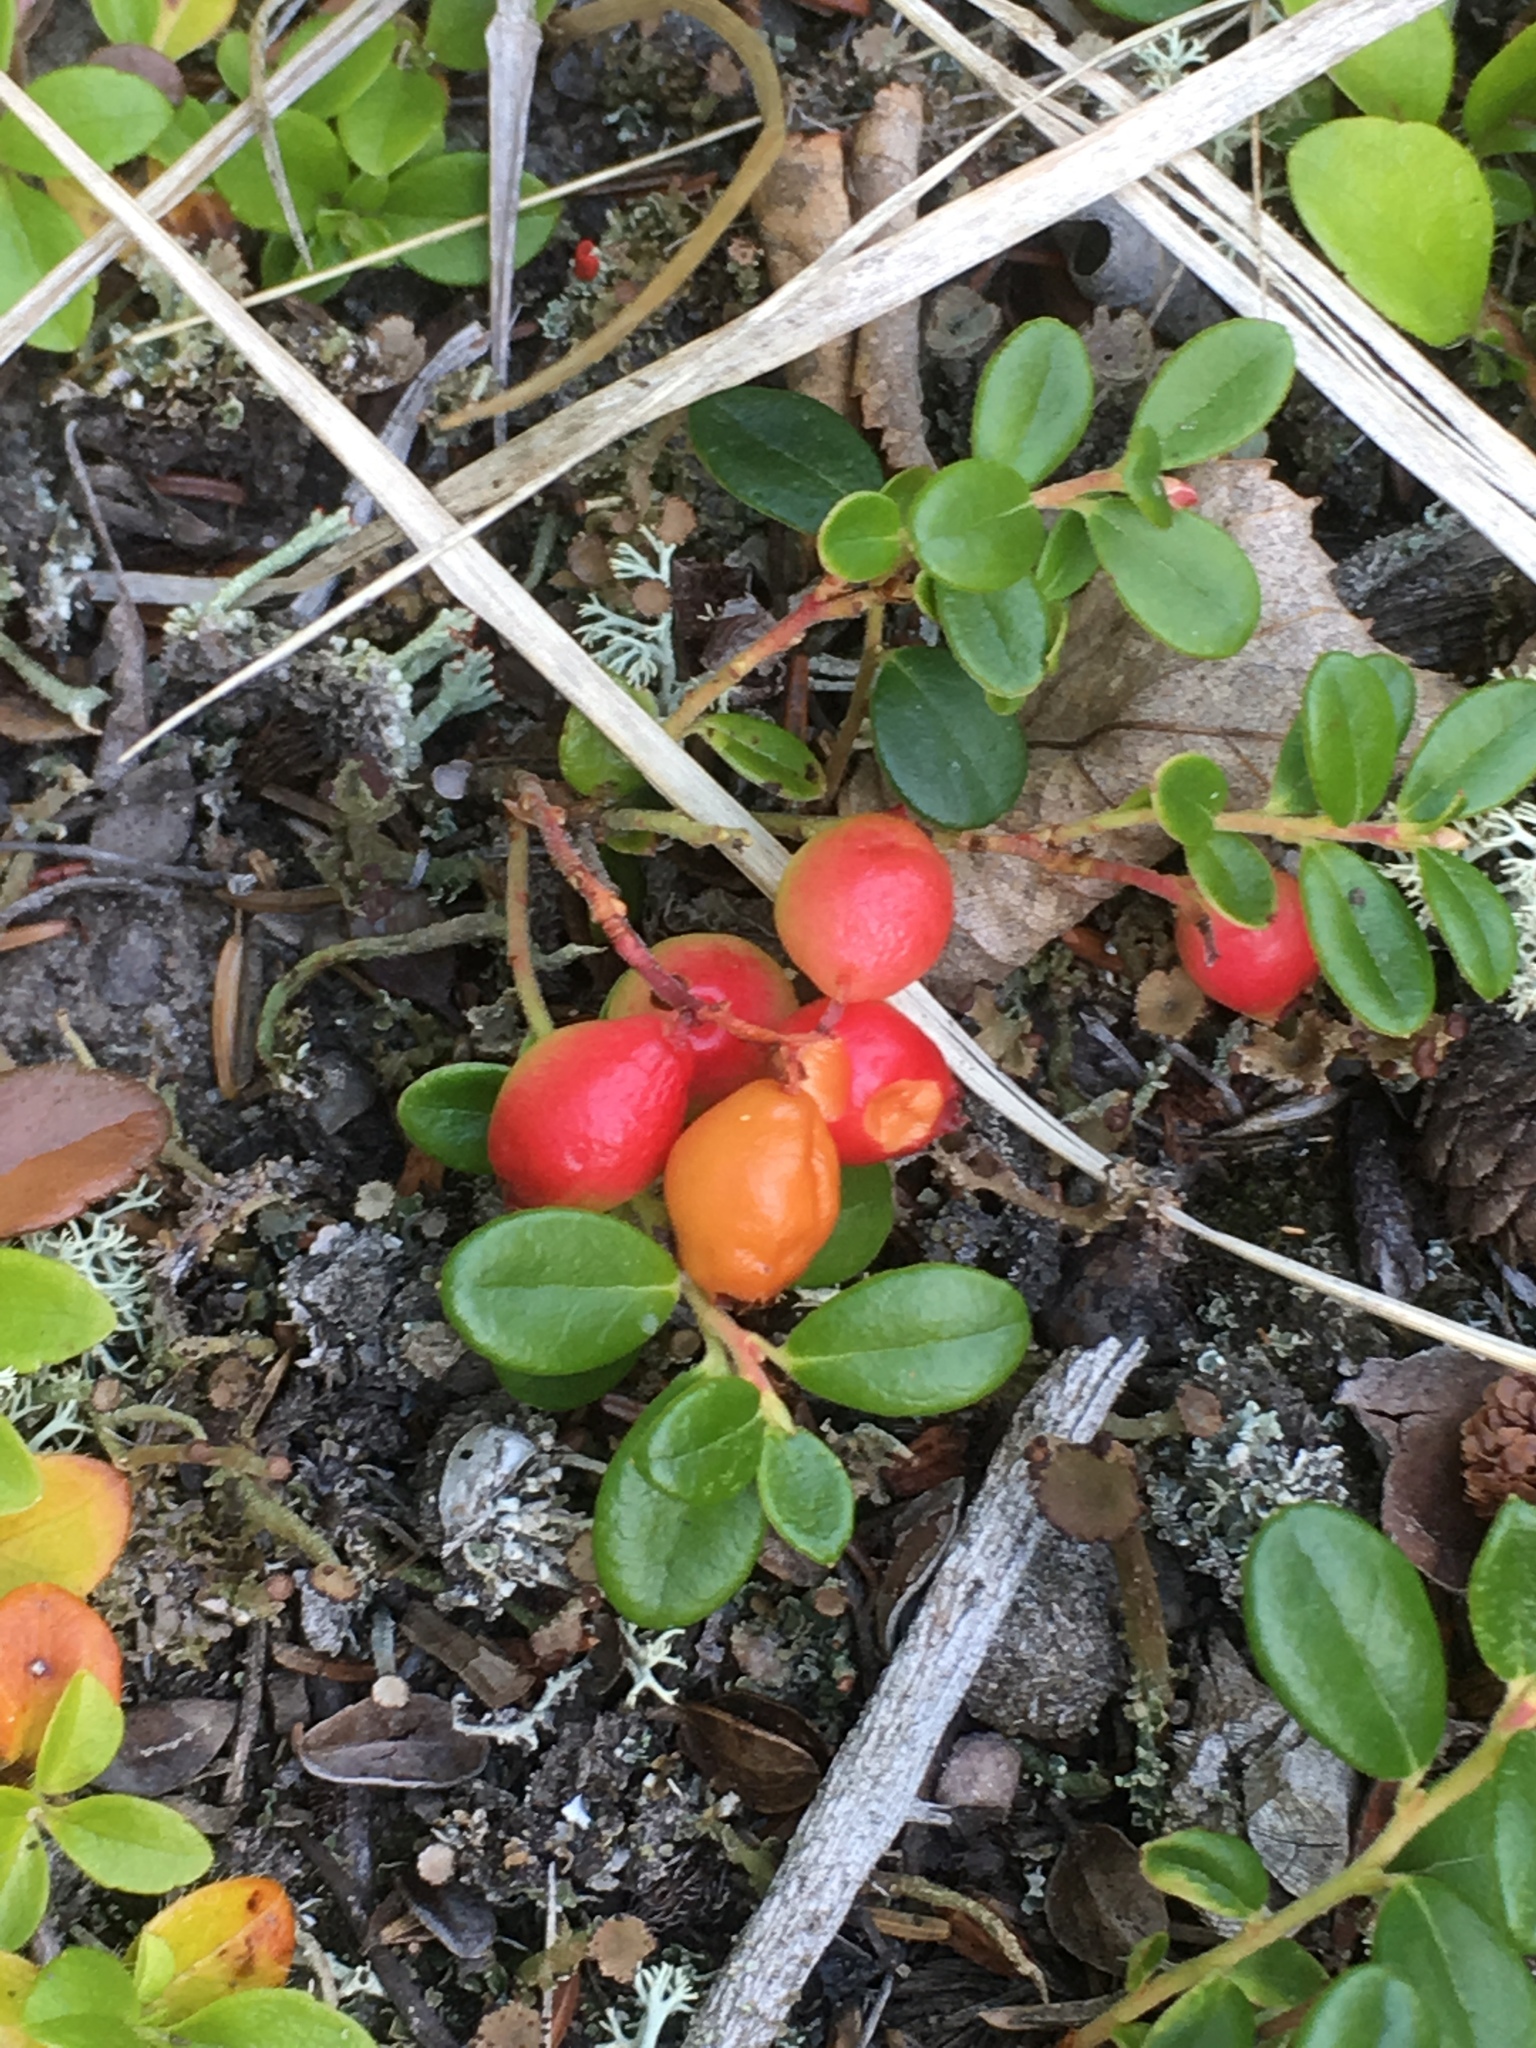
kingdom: Plantae
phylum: Tracheophyta
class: Magnoliopsida
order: Ericales
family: Ericaceae
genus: Vaccinium
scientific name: Vaccinium vitis-idaea
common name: Cowberry
